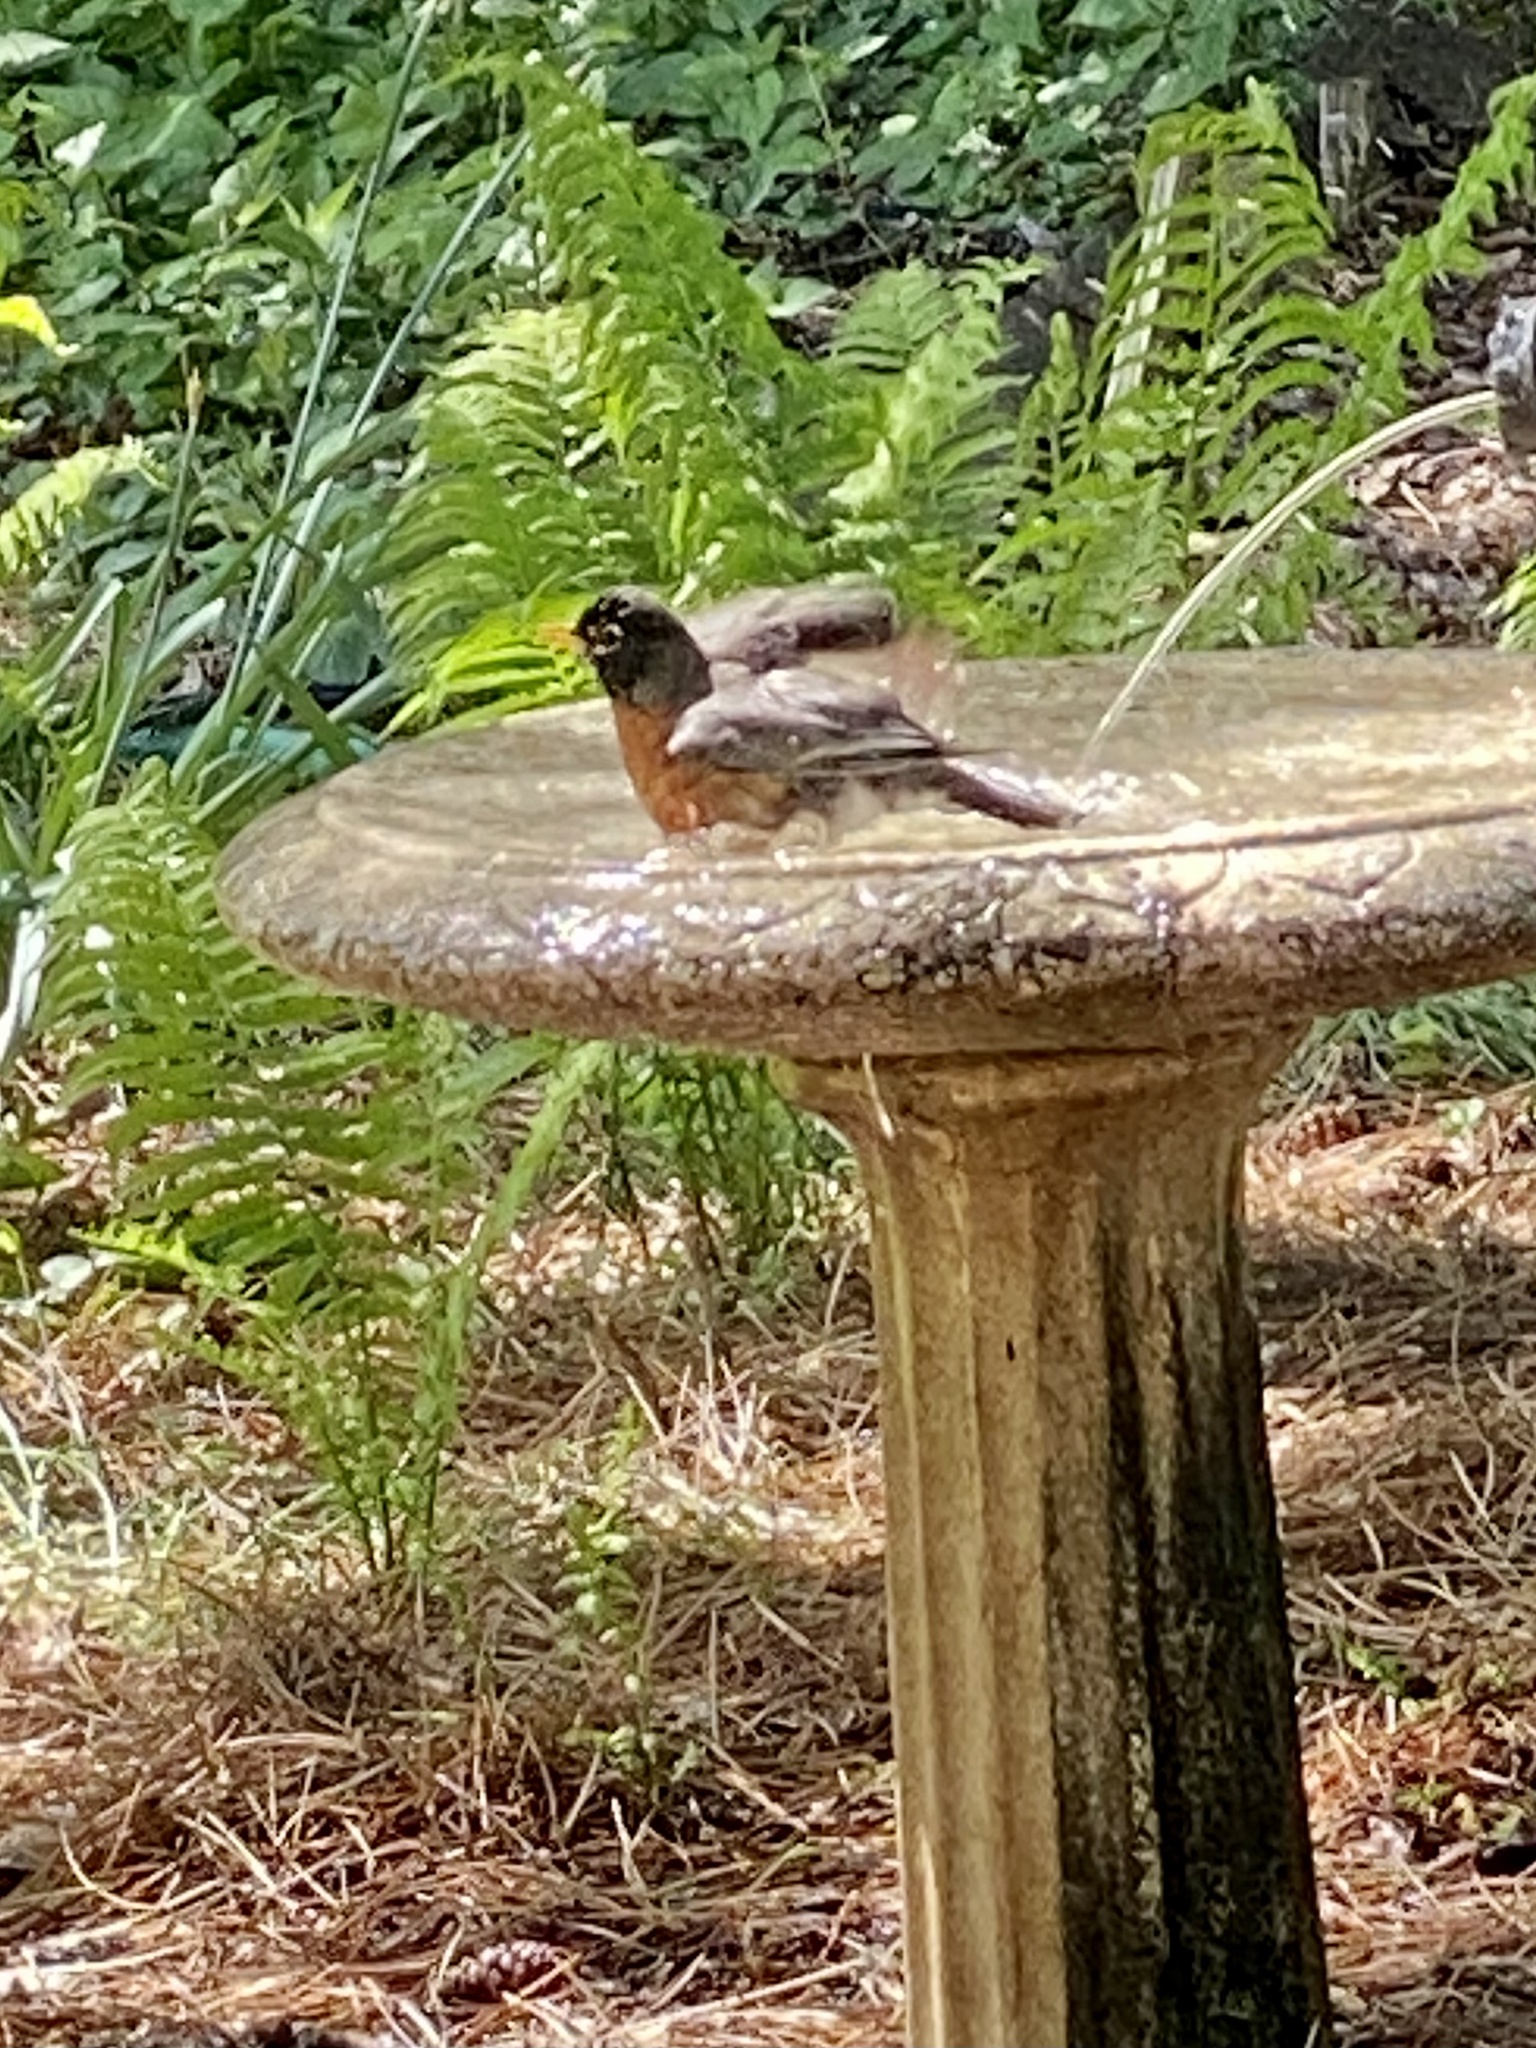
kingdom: Animalia
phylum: Chordata
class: Aves
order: Passeriformes
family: Turdidae
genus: Turdus
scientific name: Turdus migratorius
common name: American robin
